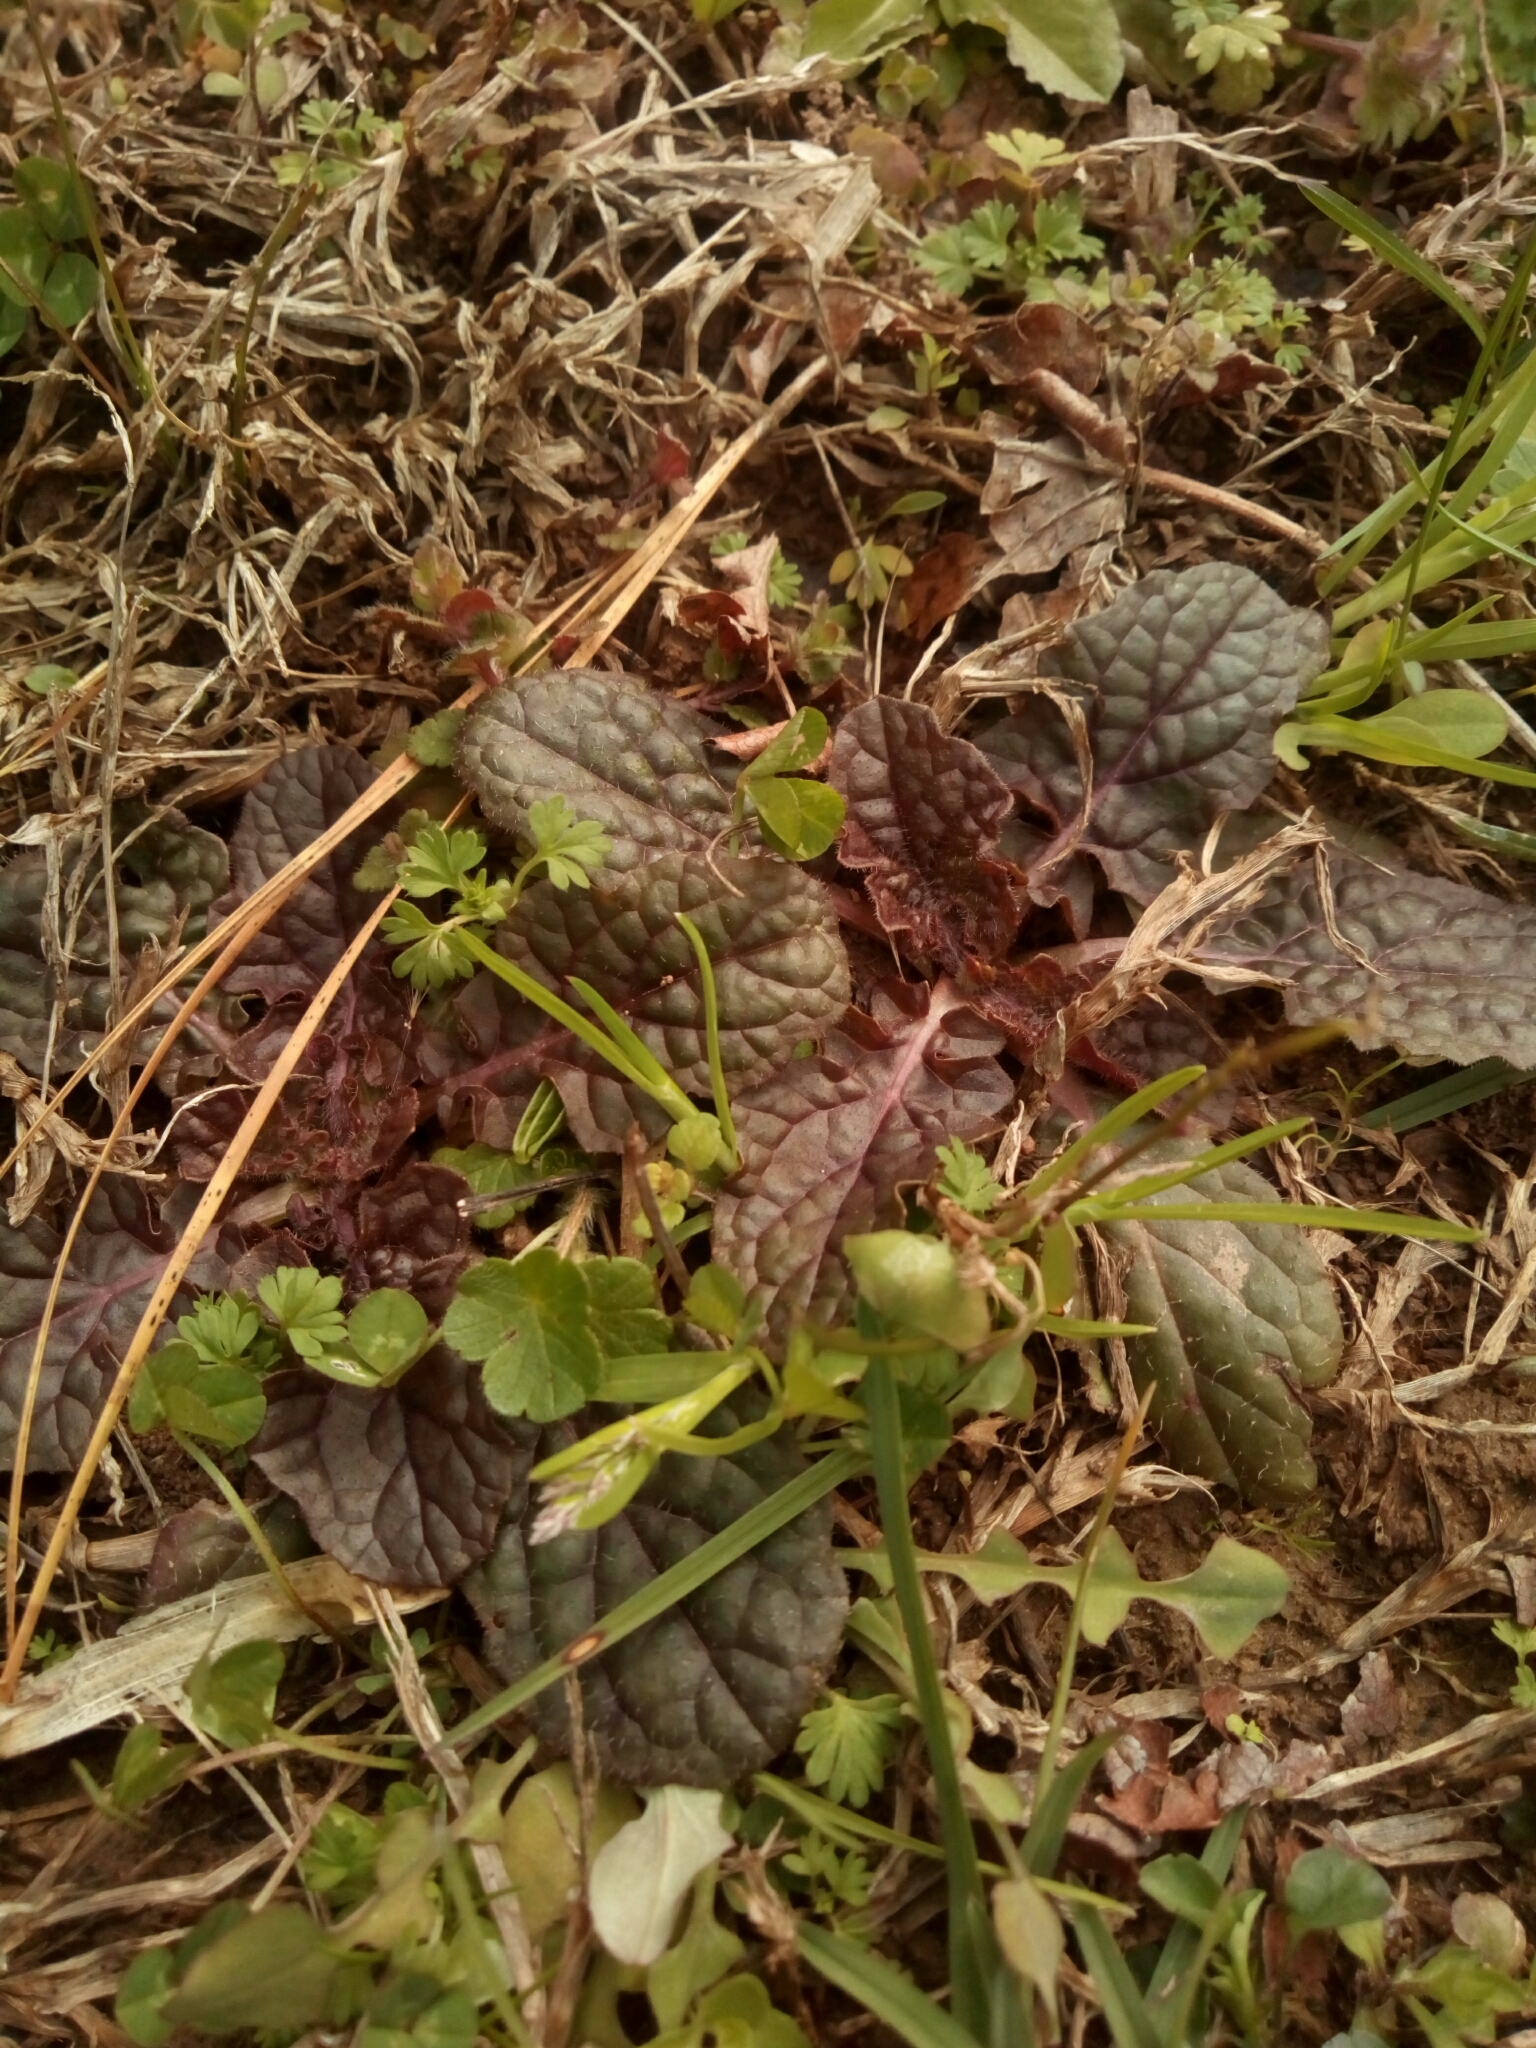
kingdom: Plantae
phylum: Tracheophyta
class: Magnoliopsida
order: Lamiales
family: Lamiaceae
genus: Salvia
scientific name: Salvia lyrata
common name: Cancerweed
